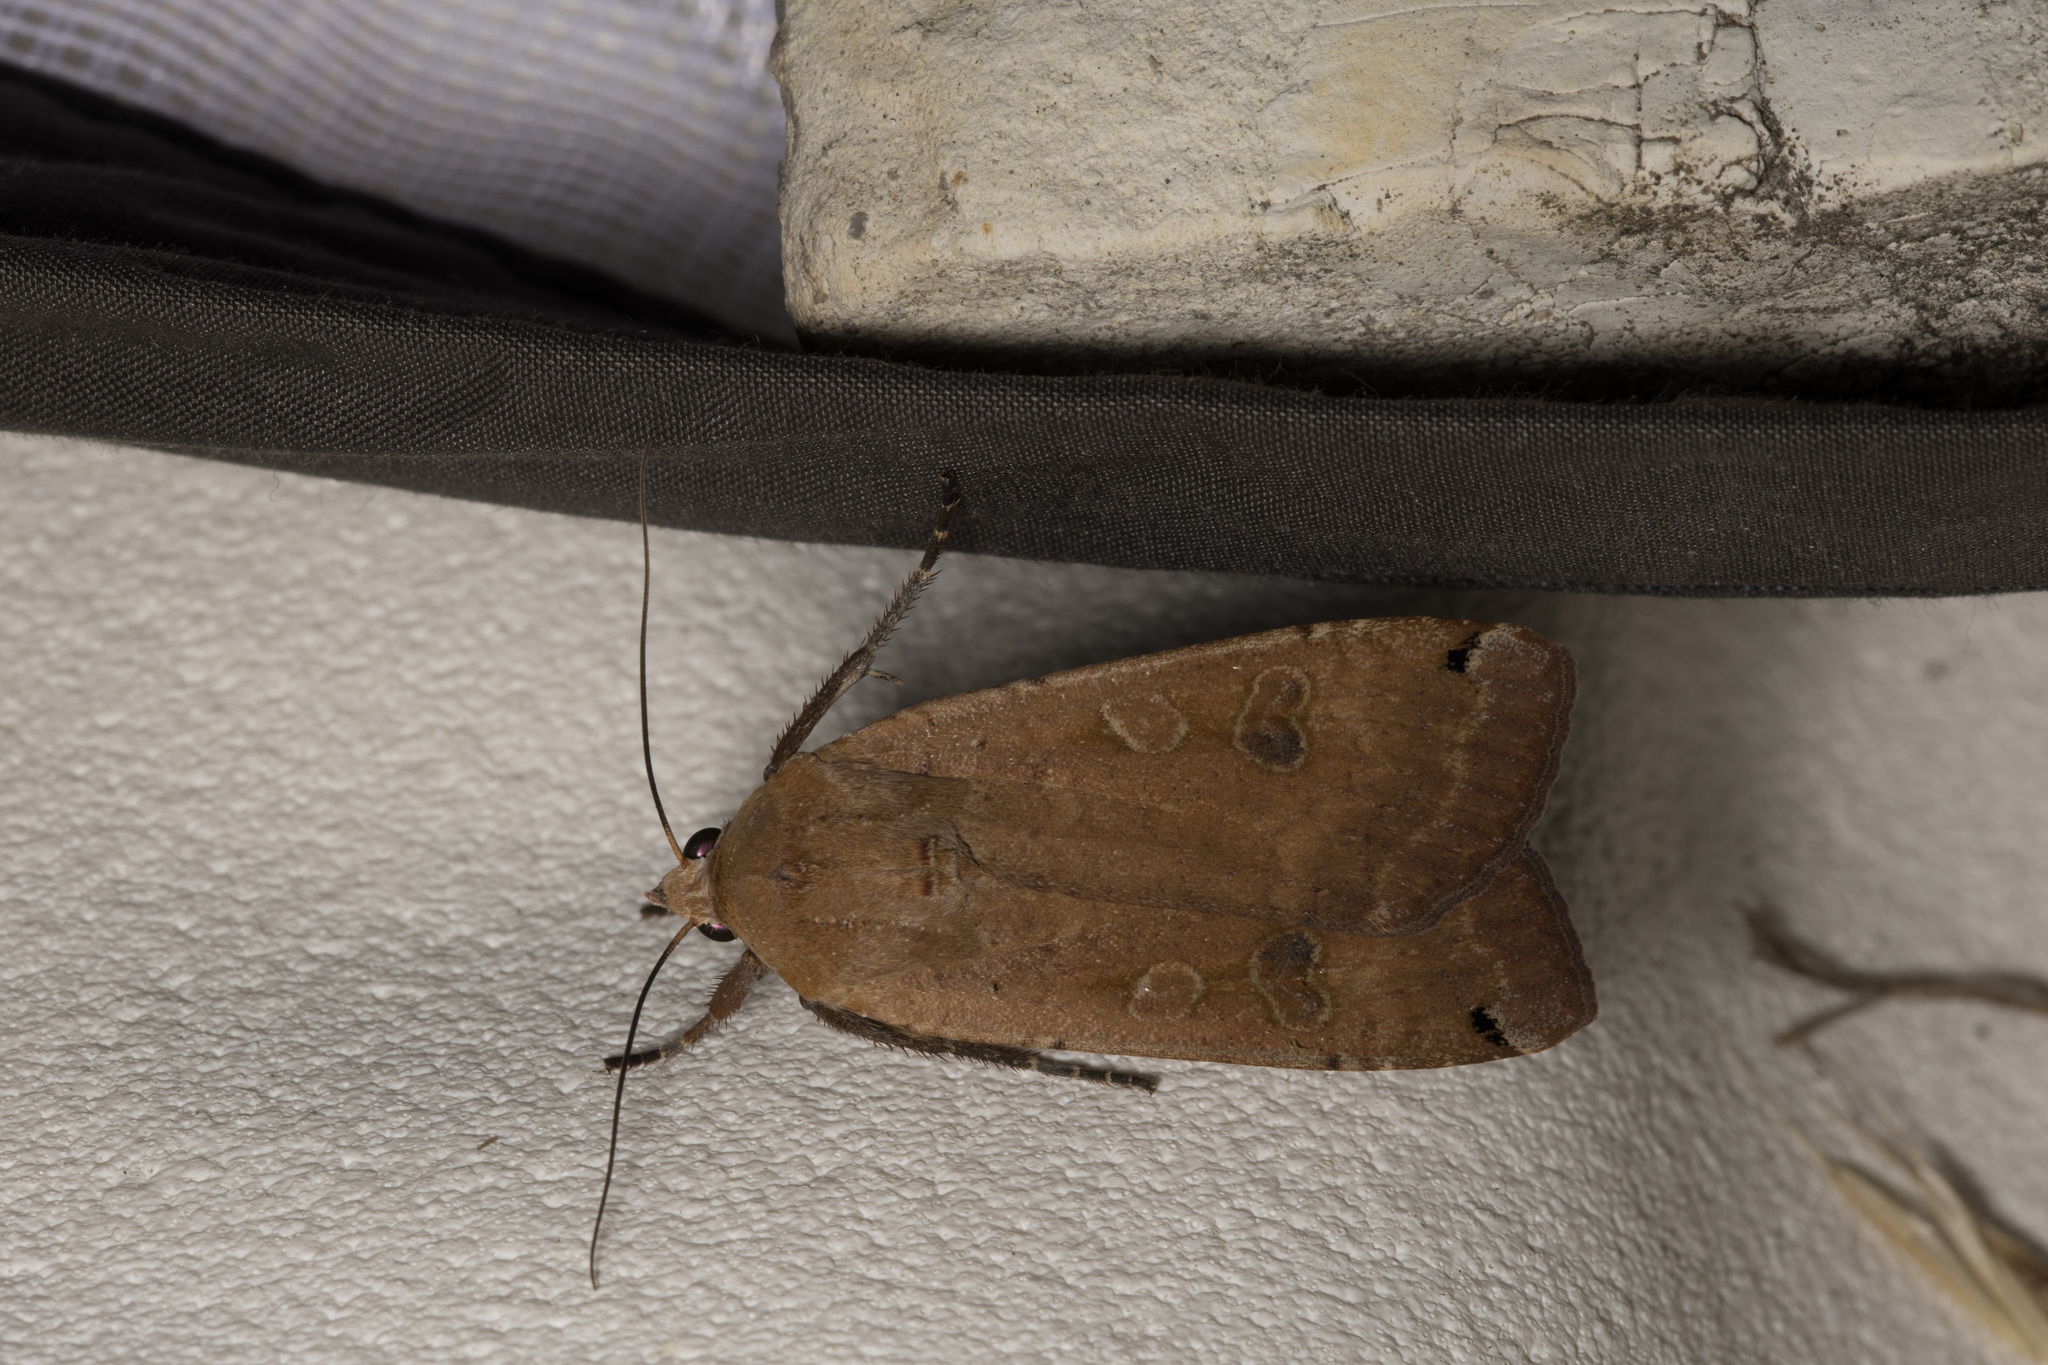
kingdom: Animalia
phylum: Arthropoda
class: Insecta
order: Lepidoptera
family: Noctuidae
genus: Noctua
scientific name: Noctua pronuba
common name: Large yellow underwing
